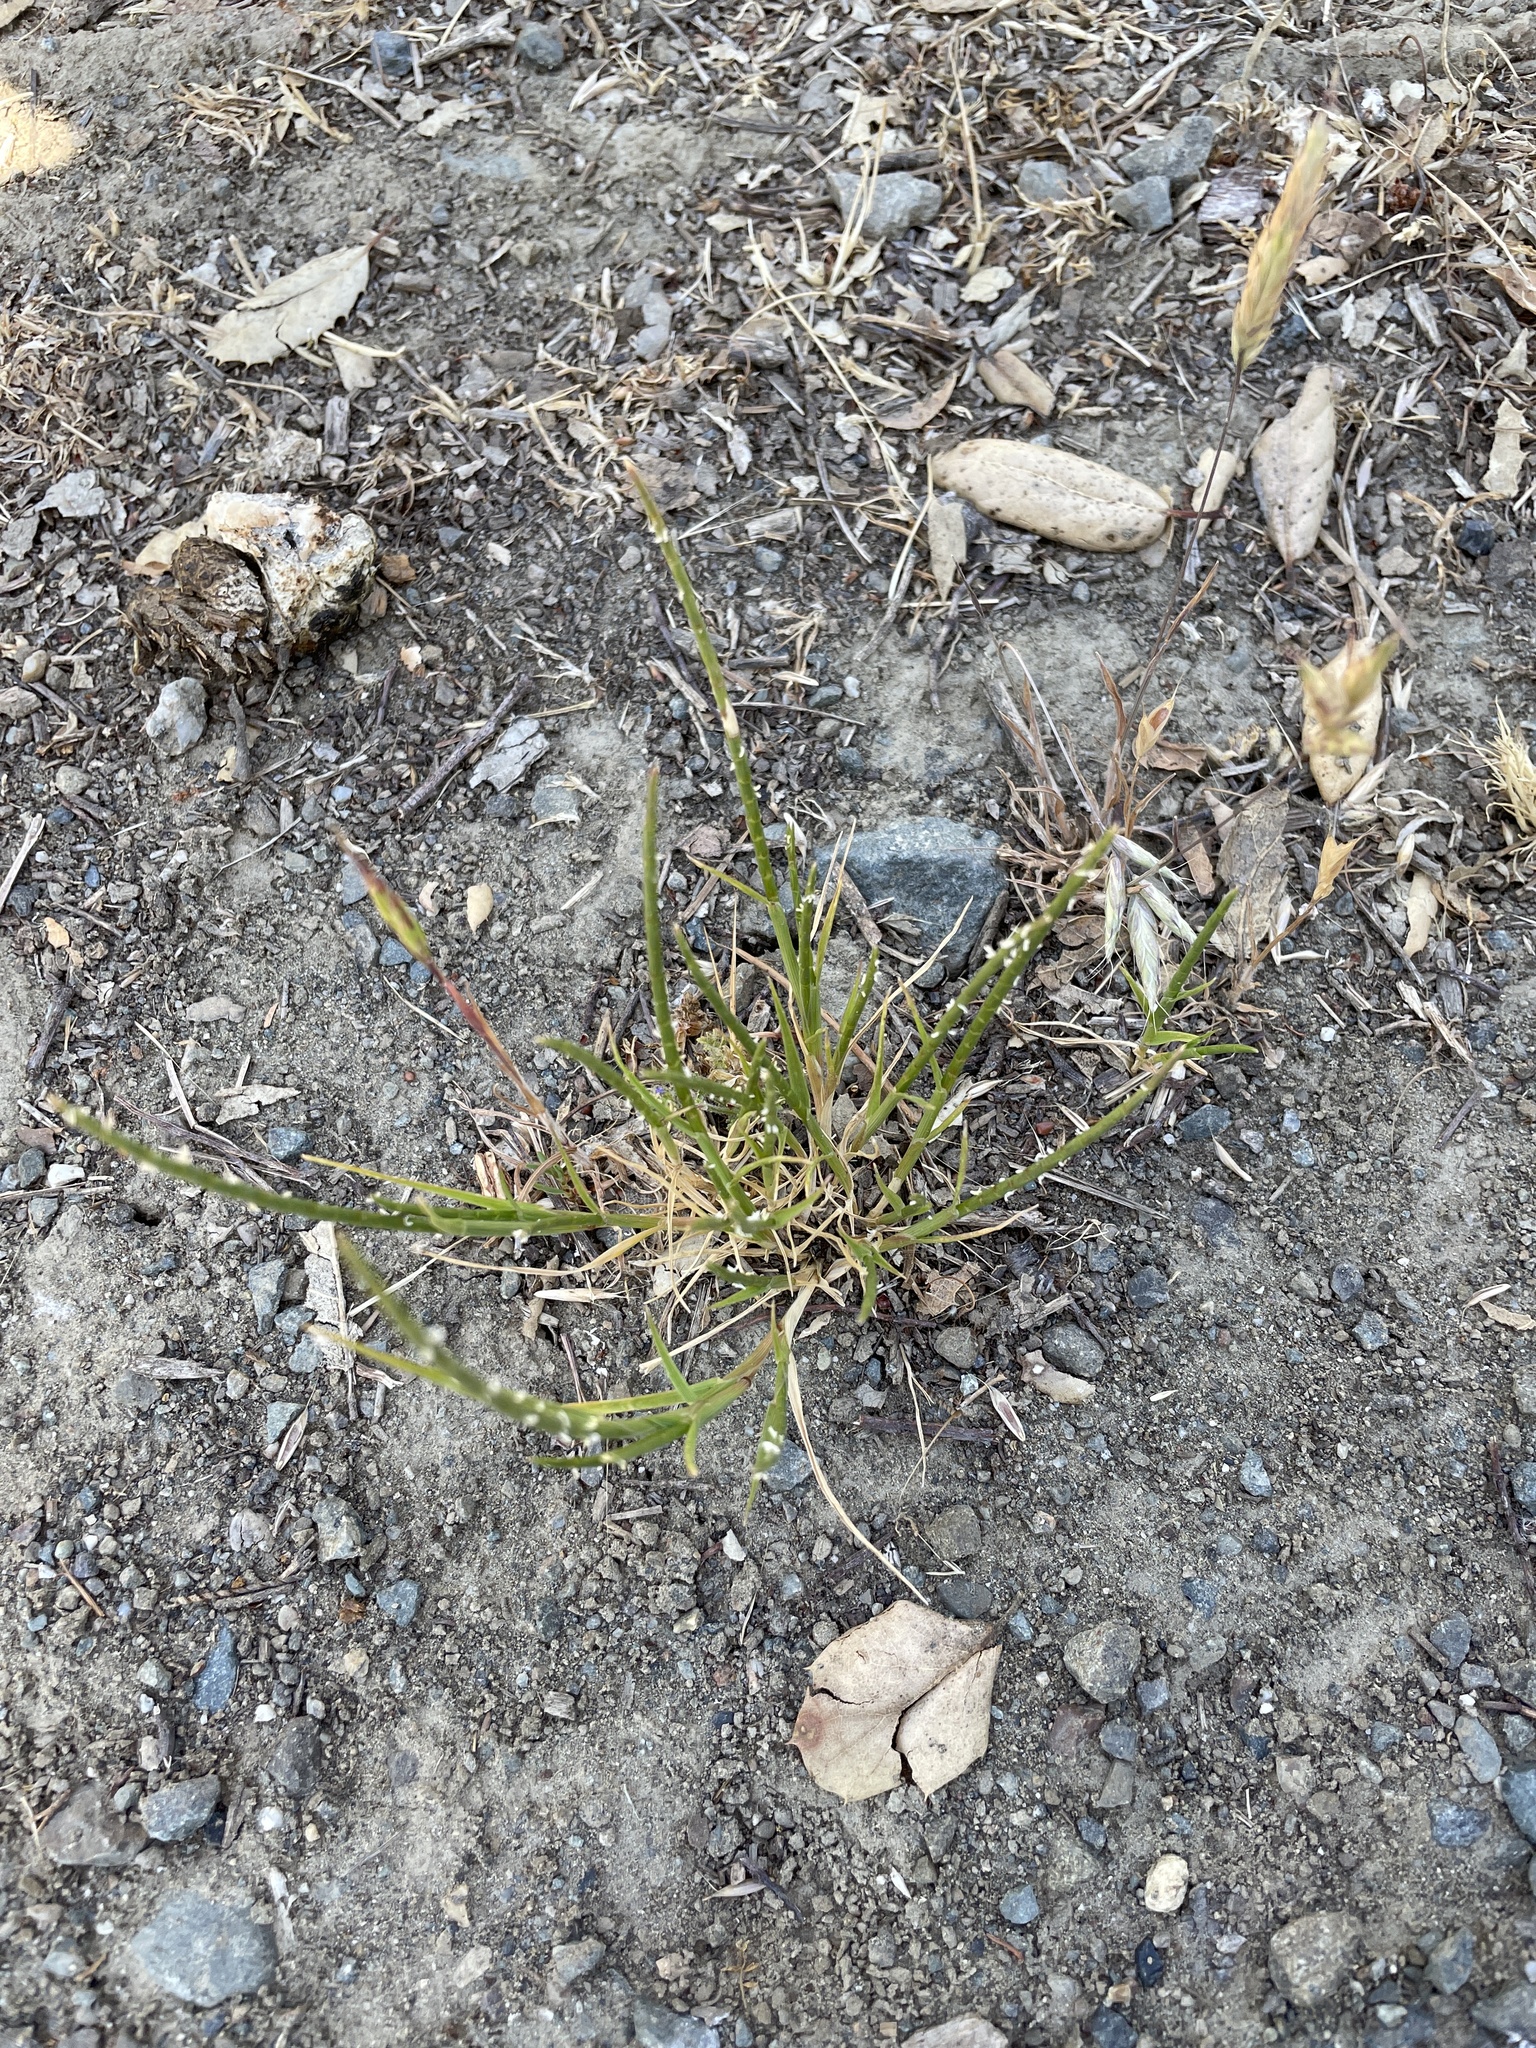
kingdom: Plantae
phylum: Tracheophyta
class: Liliopsida
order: Poales
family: Poaceae
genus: Parapholis
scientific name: Parapholis incurva
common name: Curved sicklegrass
